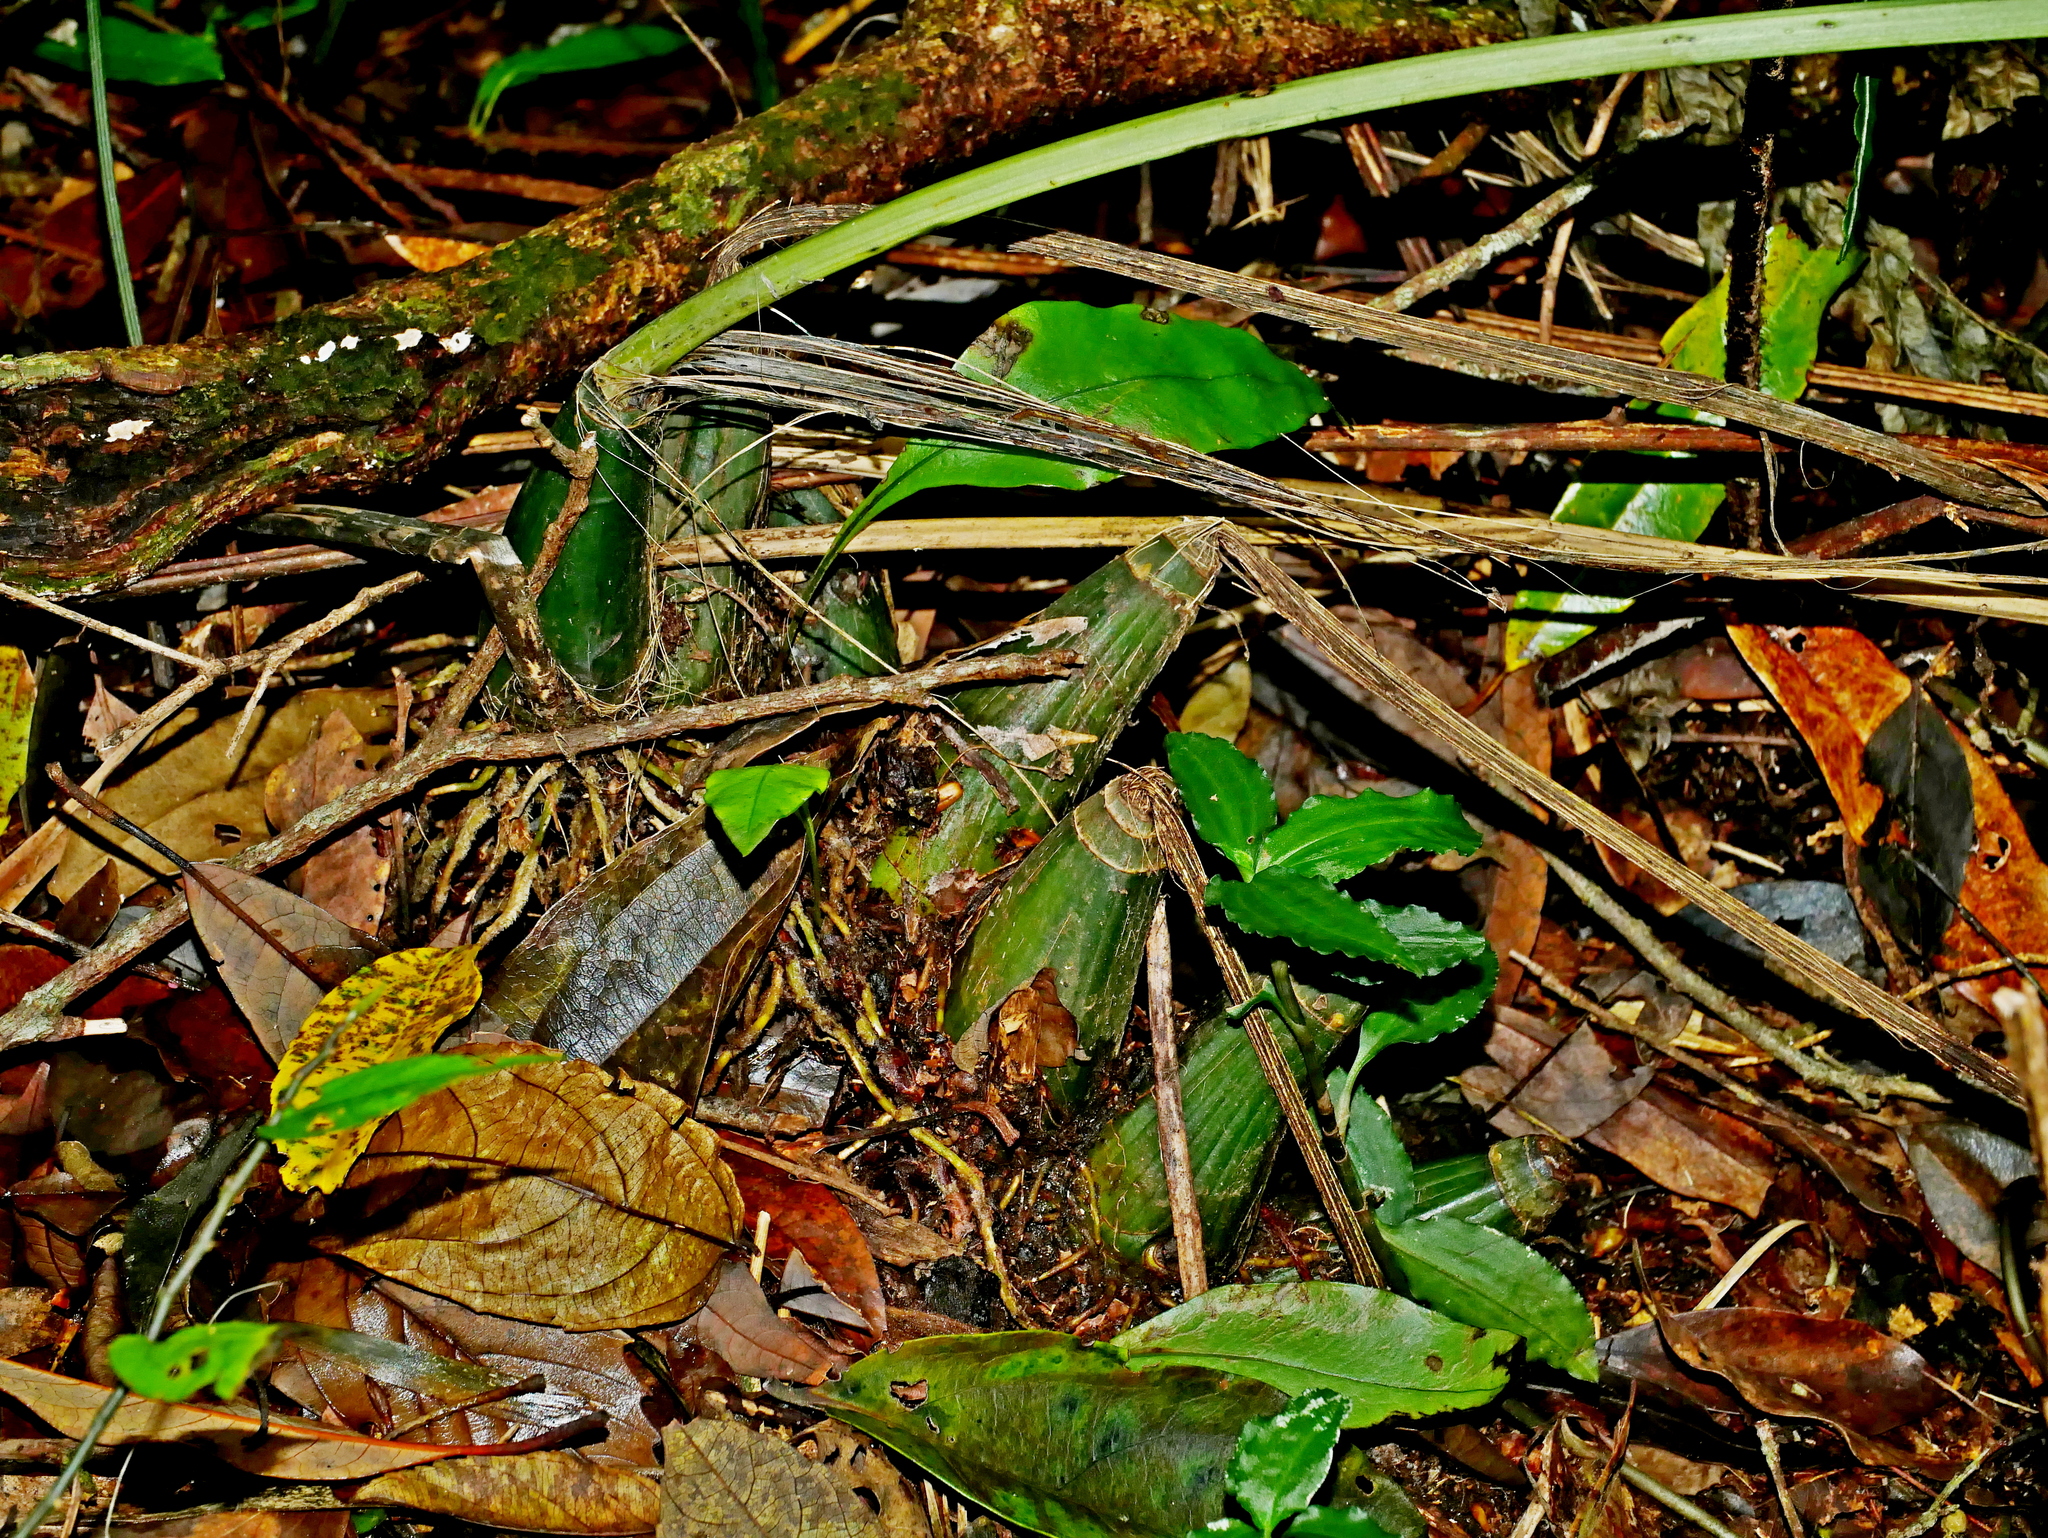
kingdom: Plantae
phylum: Tracheophyta
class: Liliopsida
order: Asparagales
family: Orchidaceae
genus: Calanthe
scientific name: Calanthe woodfordii
